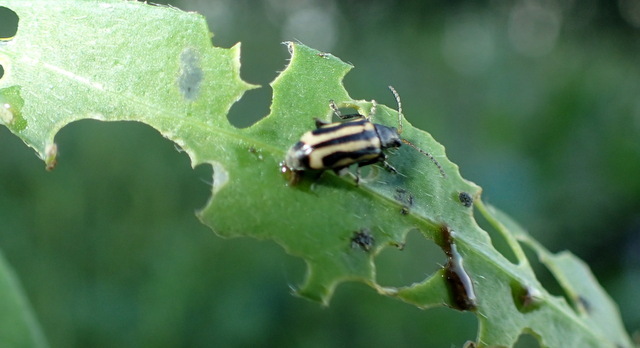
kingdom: Animalia
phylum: Arthropoda
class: Insecta
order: Coleoptera
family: Chrysomelidae
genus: Agasicles
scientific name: Agasicles hygrophila
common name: Alligatorweed flea beetle
